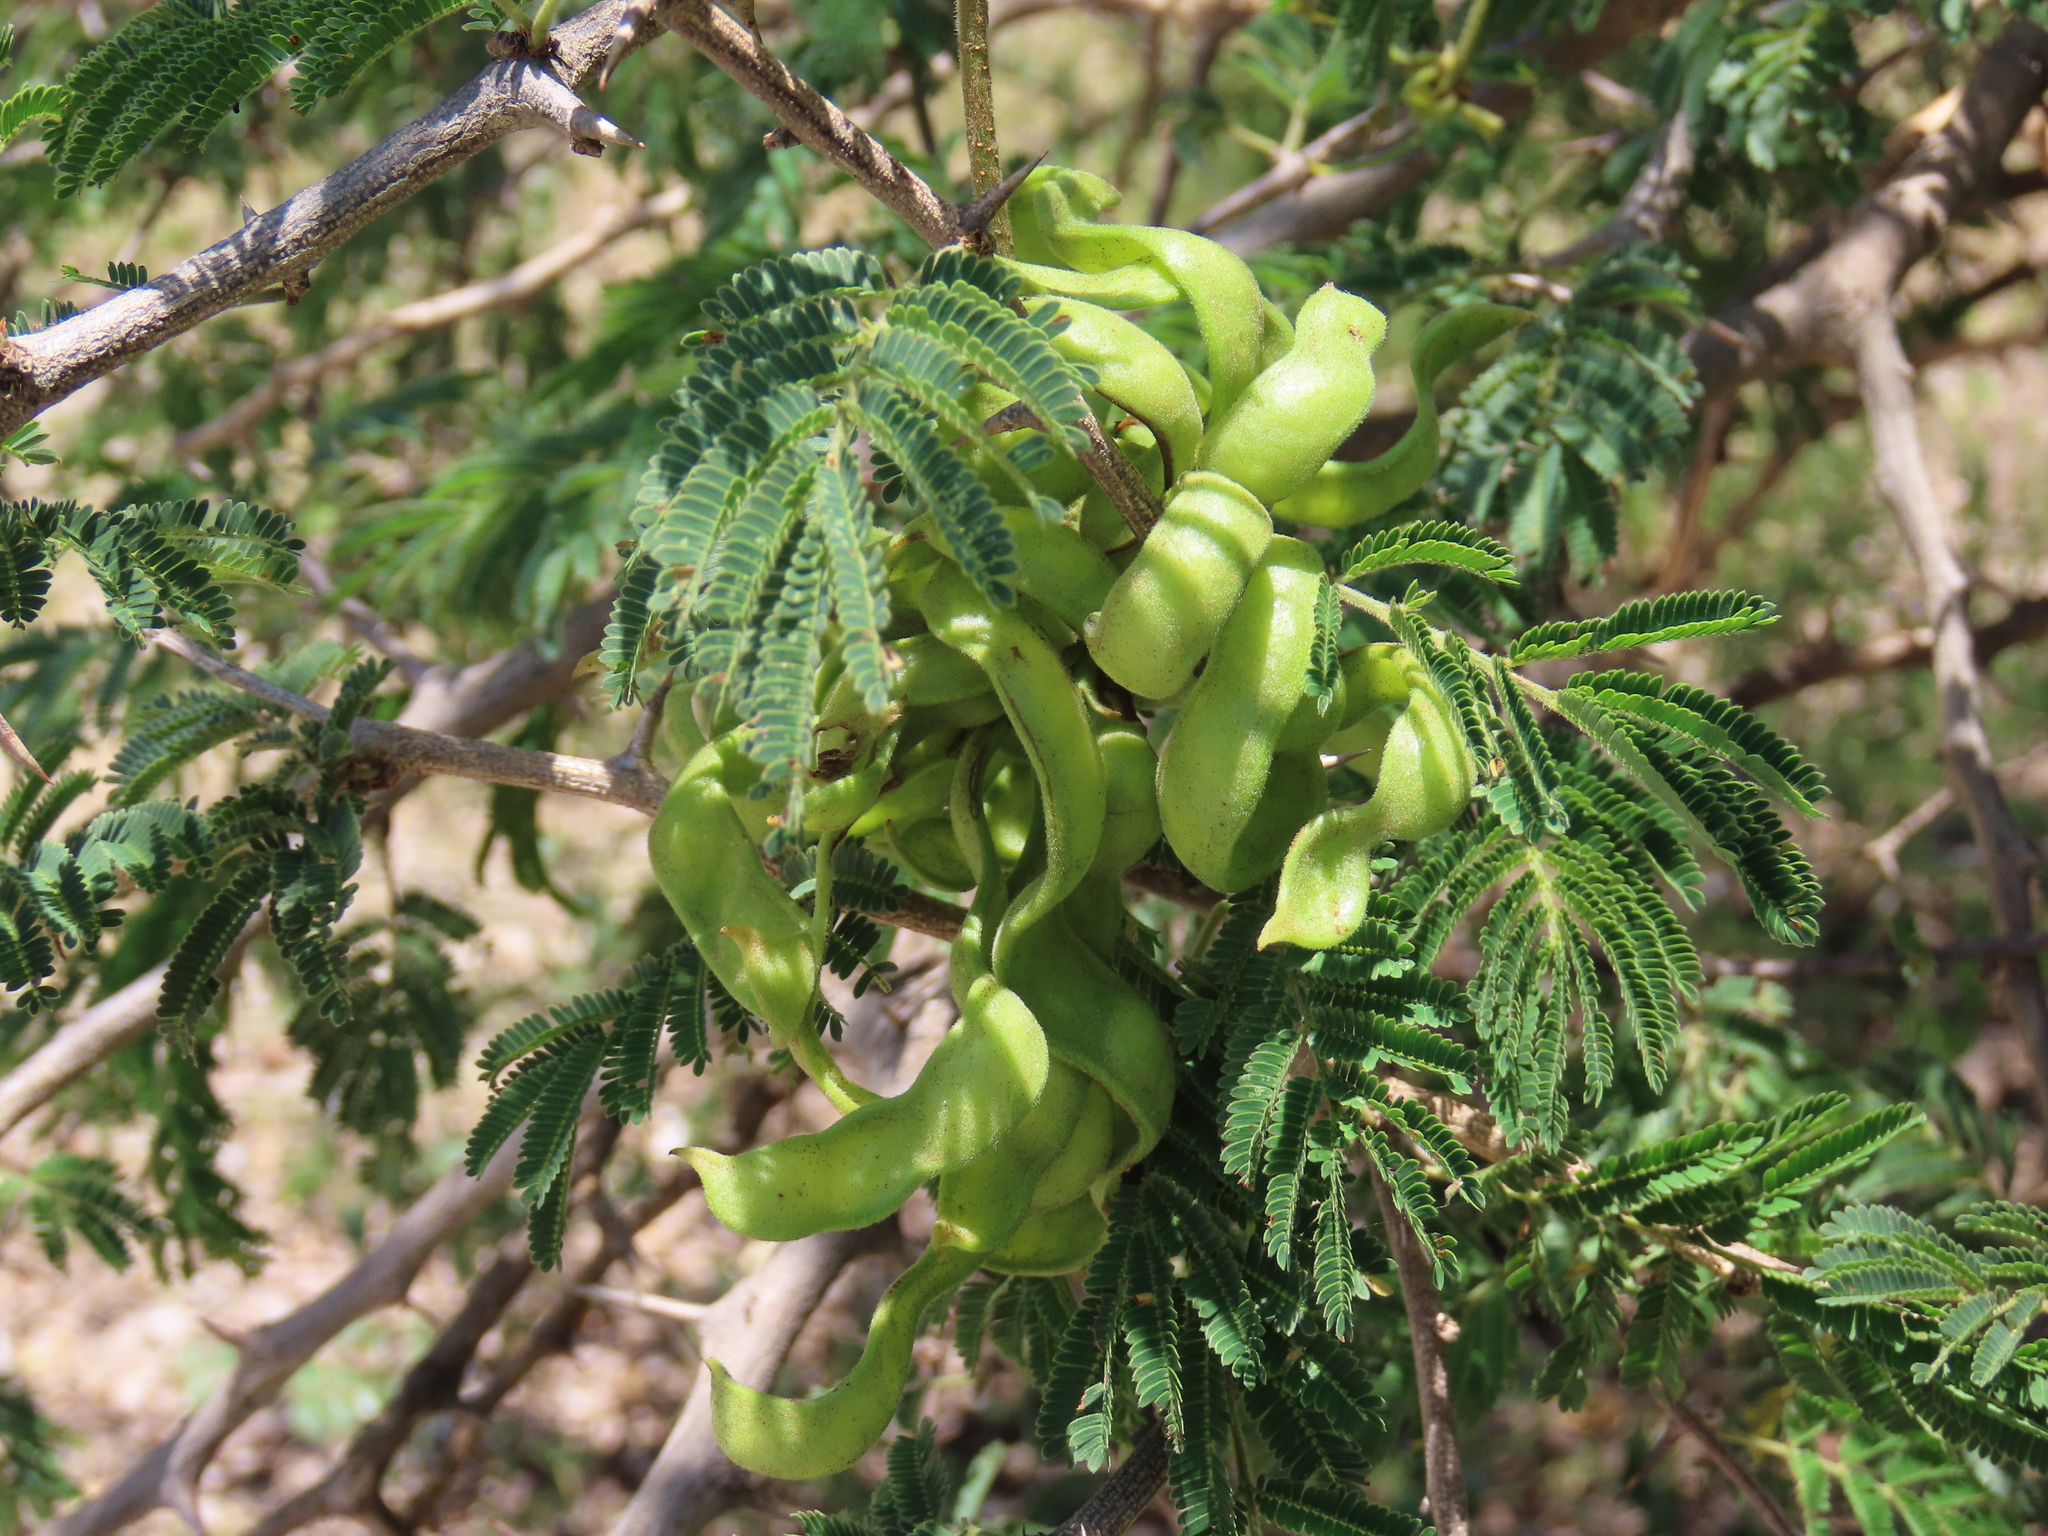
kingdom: Plantae
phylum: Tracheophyta
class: Magnoliopsida
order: Fabales
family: Fabaceae
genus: Dichrostachys
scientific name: Dichrostachys cinerea
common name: Sicklebush
